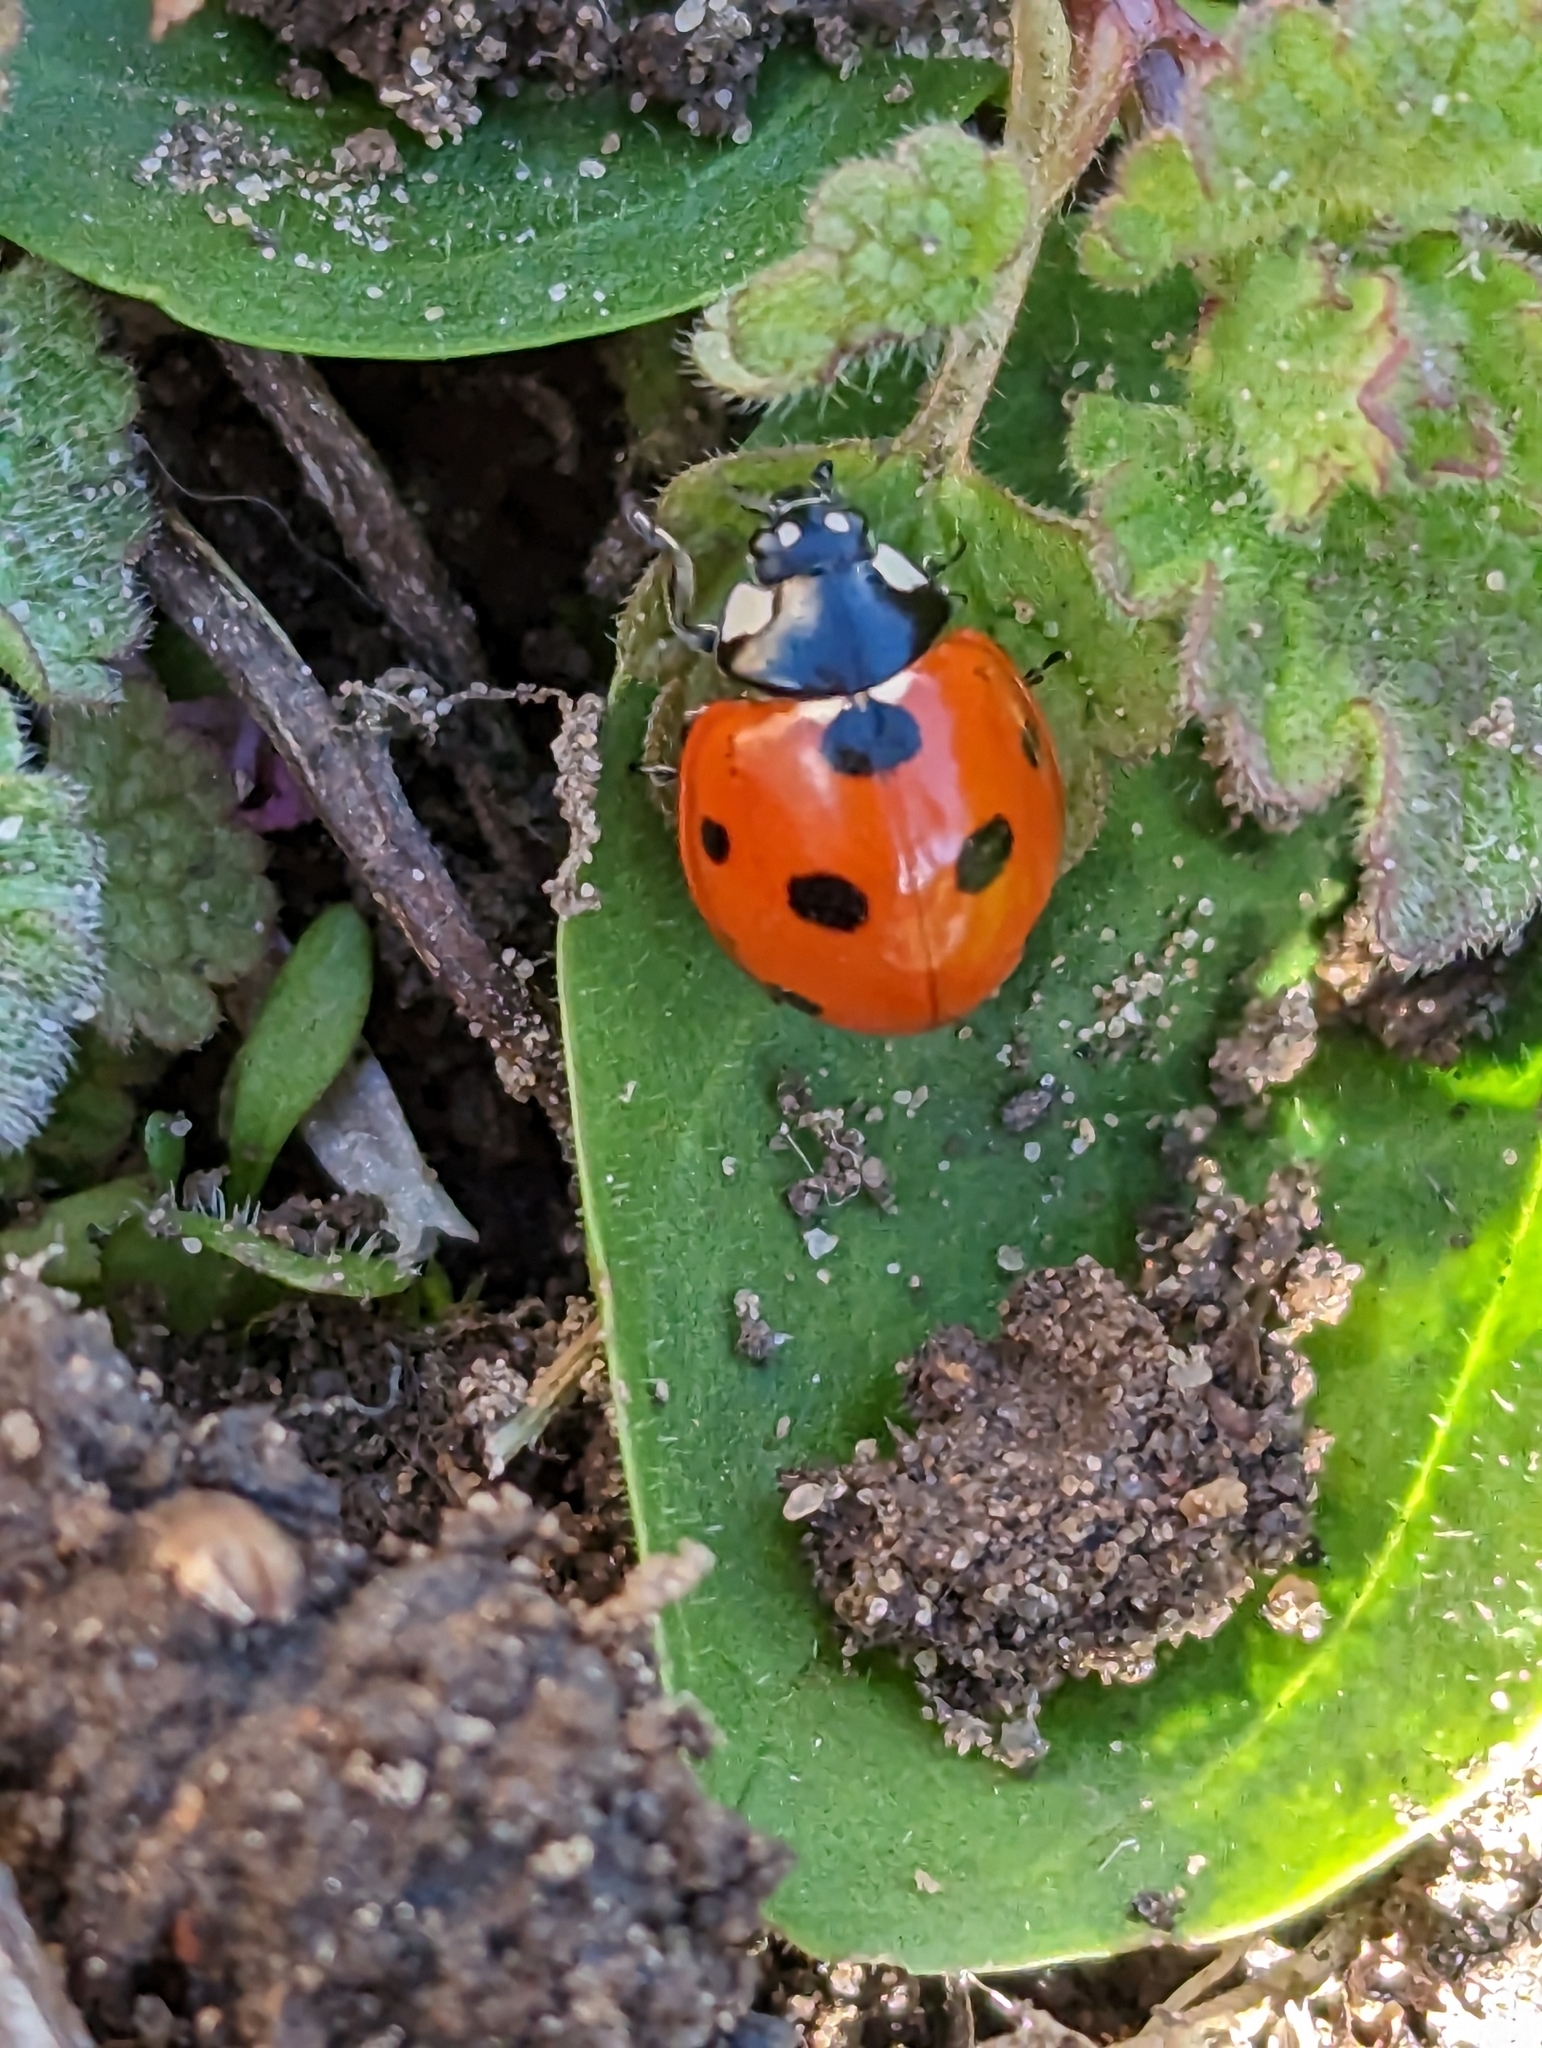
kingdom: Animalia
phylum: Arthropoda
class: Insecta
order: Coleoptera
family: Coccinellidae
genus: Coccinella
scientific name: Coccinella septempunctata
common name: Sevenspotted lady beetle
